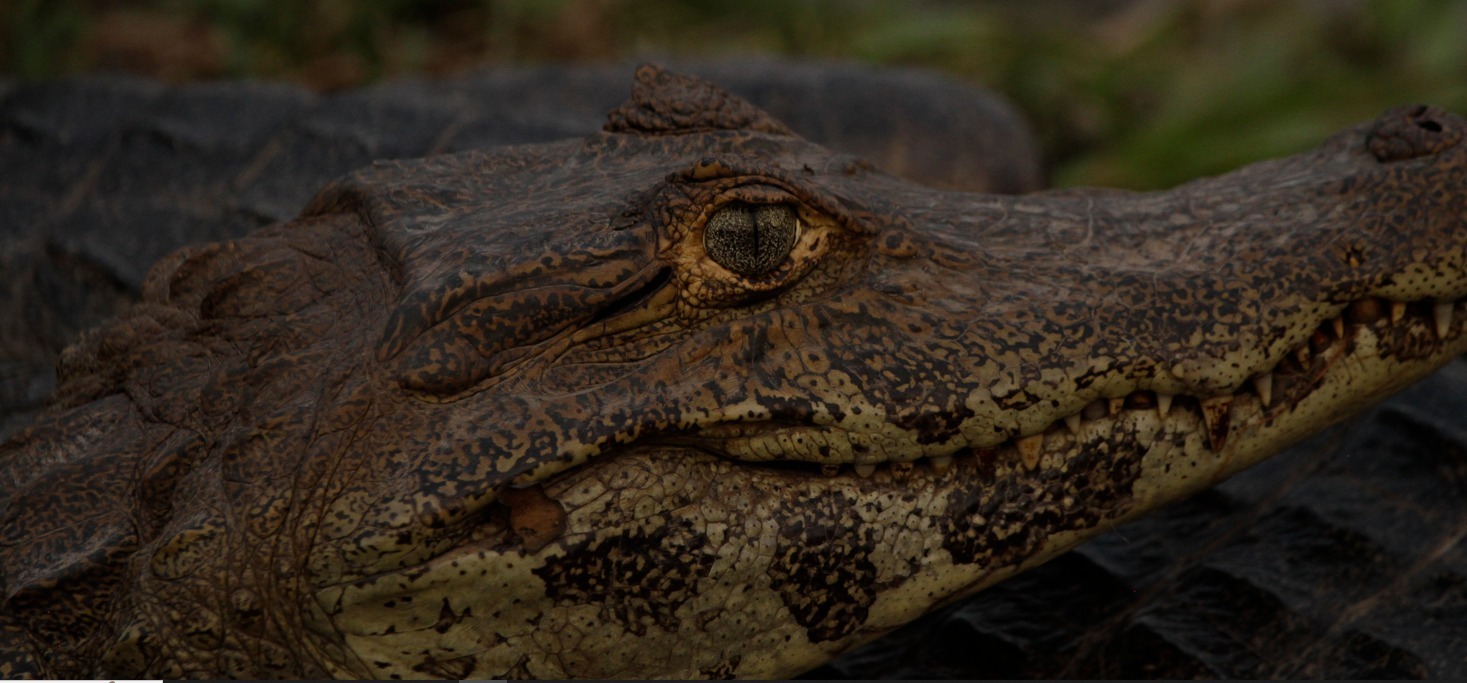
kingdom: Animalia
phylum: Chordata
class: Crocodylia
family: Alligatoridae
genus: Caiman
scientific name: Caiman yacare
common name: Yacare caiman
